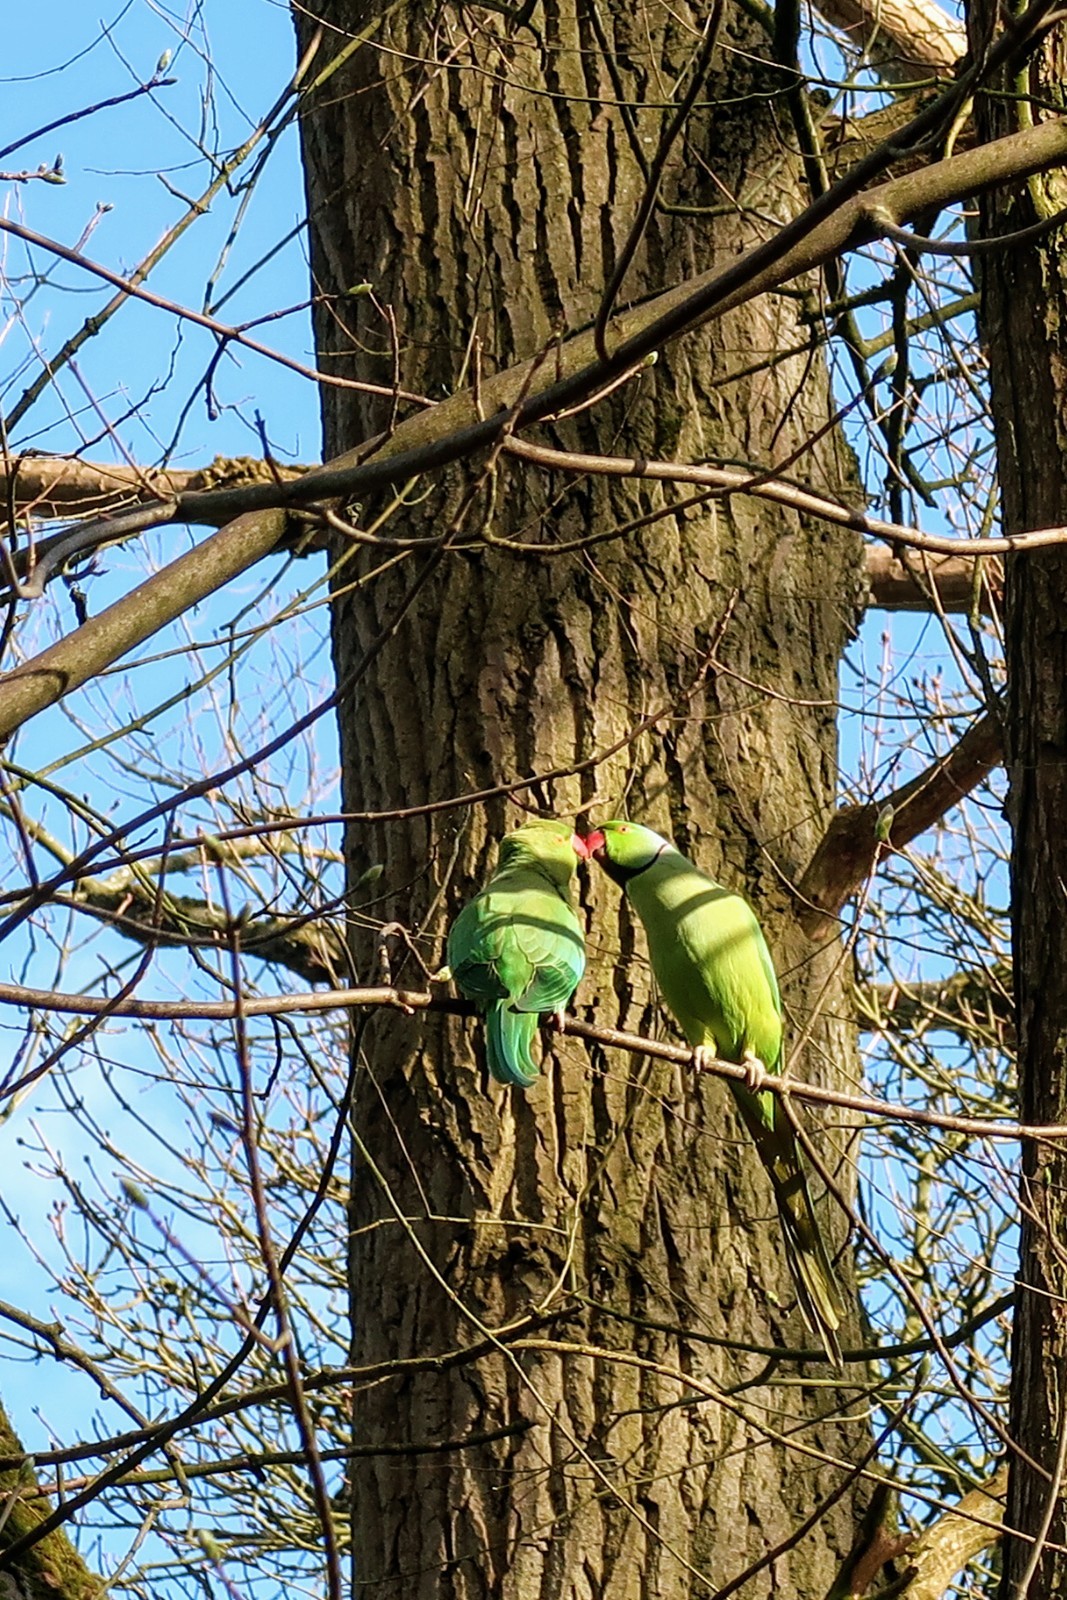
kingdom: Animalia
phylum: Chordata
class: Aves
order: Psittaciformes
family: Psittacidae
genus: Psittacula
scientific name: Psittacula krameri
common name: Rose-ringed parakeet
